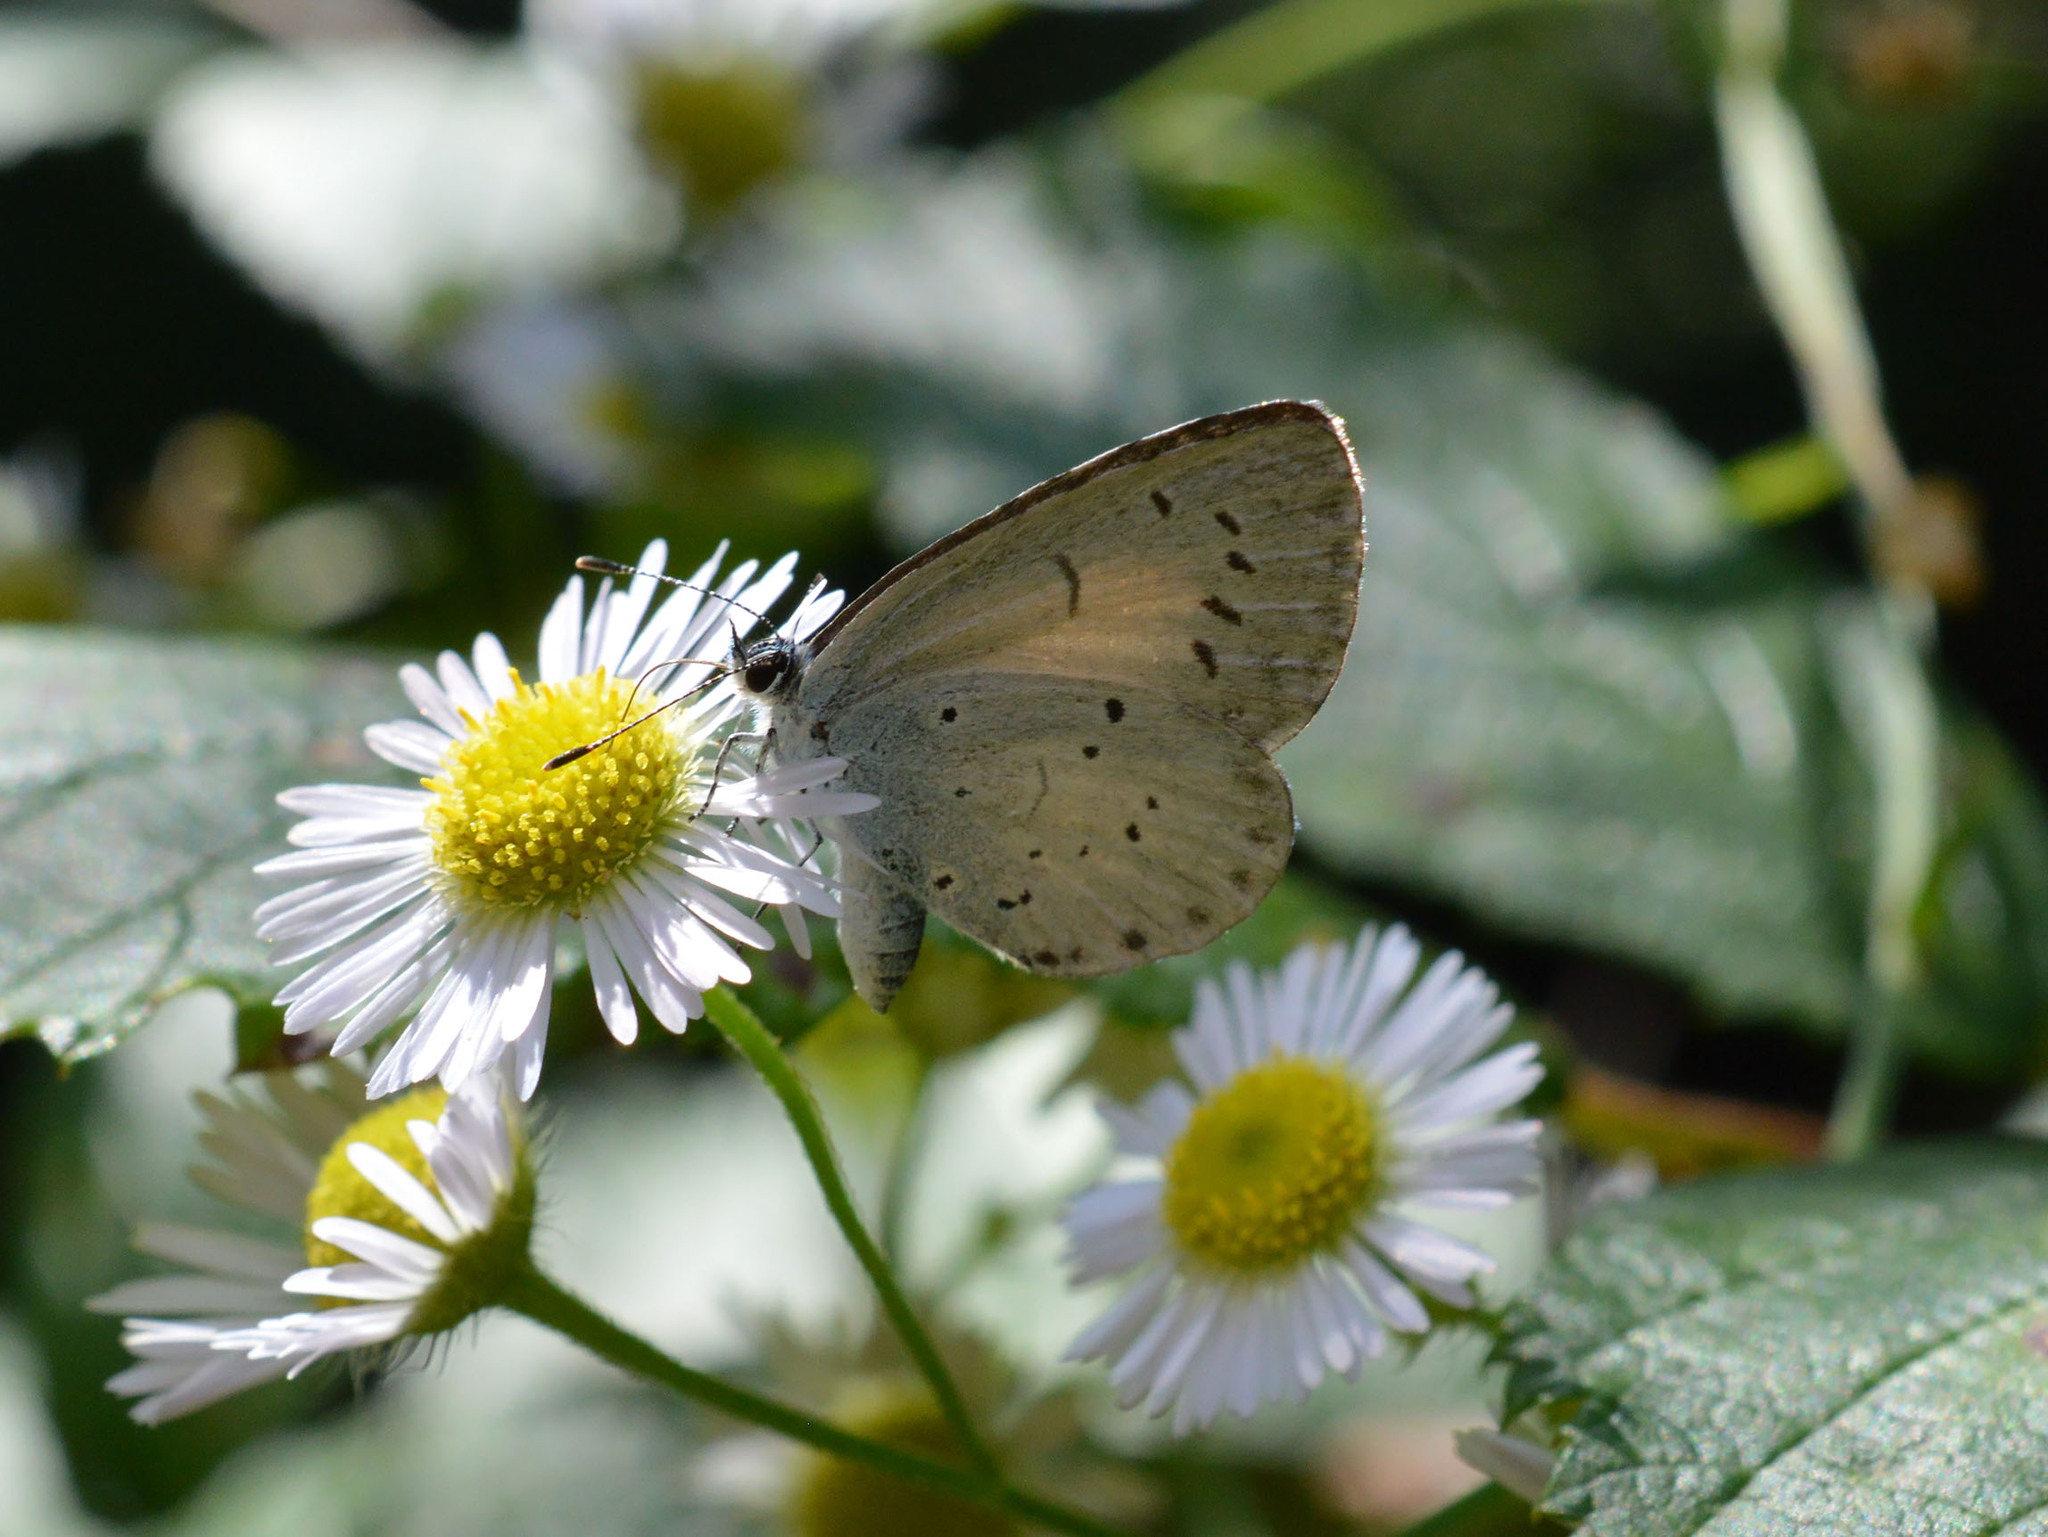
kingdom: Animalia
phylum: Arthropoda
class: Insecta
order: Lepidoptera
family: Lycaenidae
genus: Celastrina
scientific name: Celastrina argiolus
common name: Holly blue
